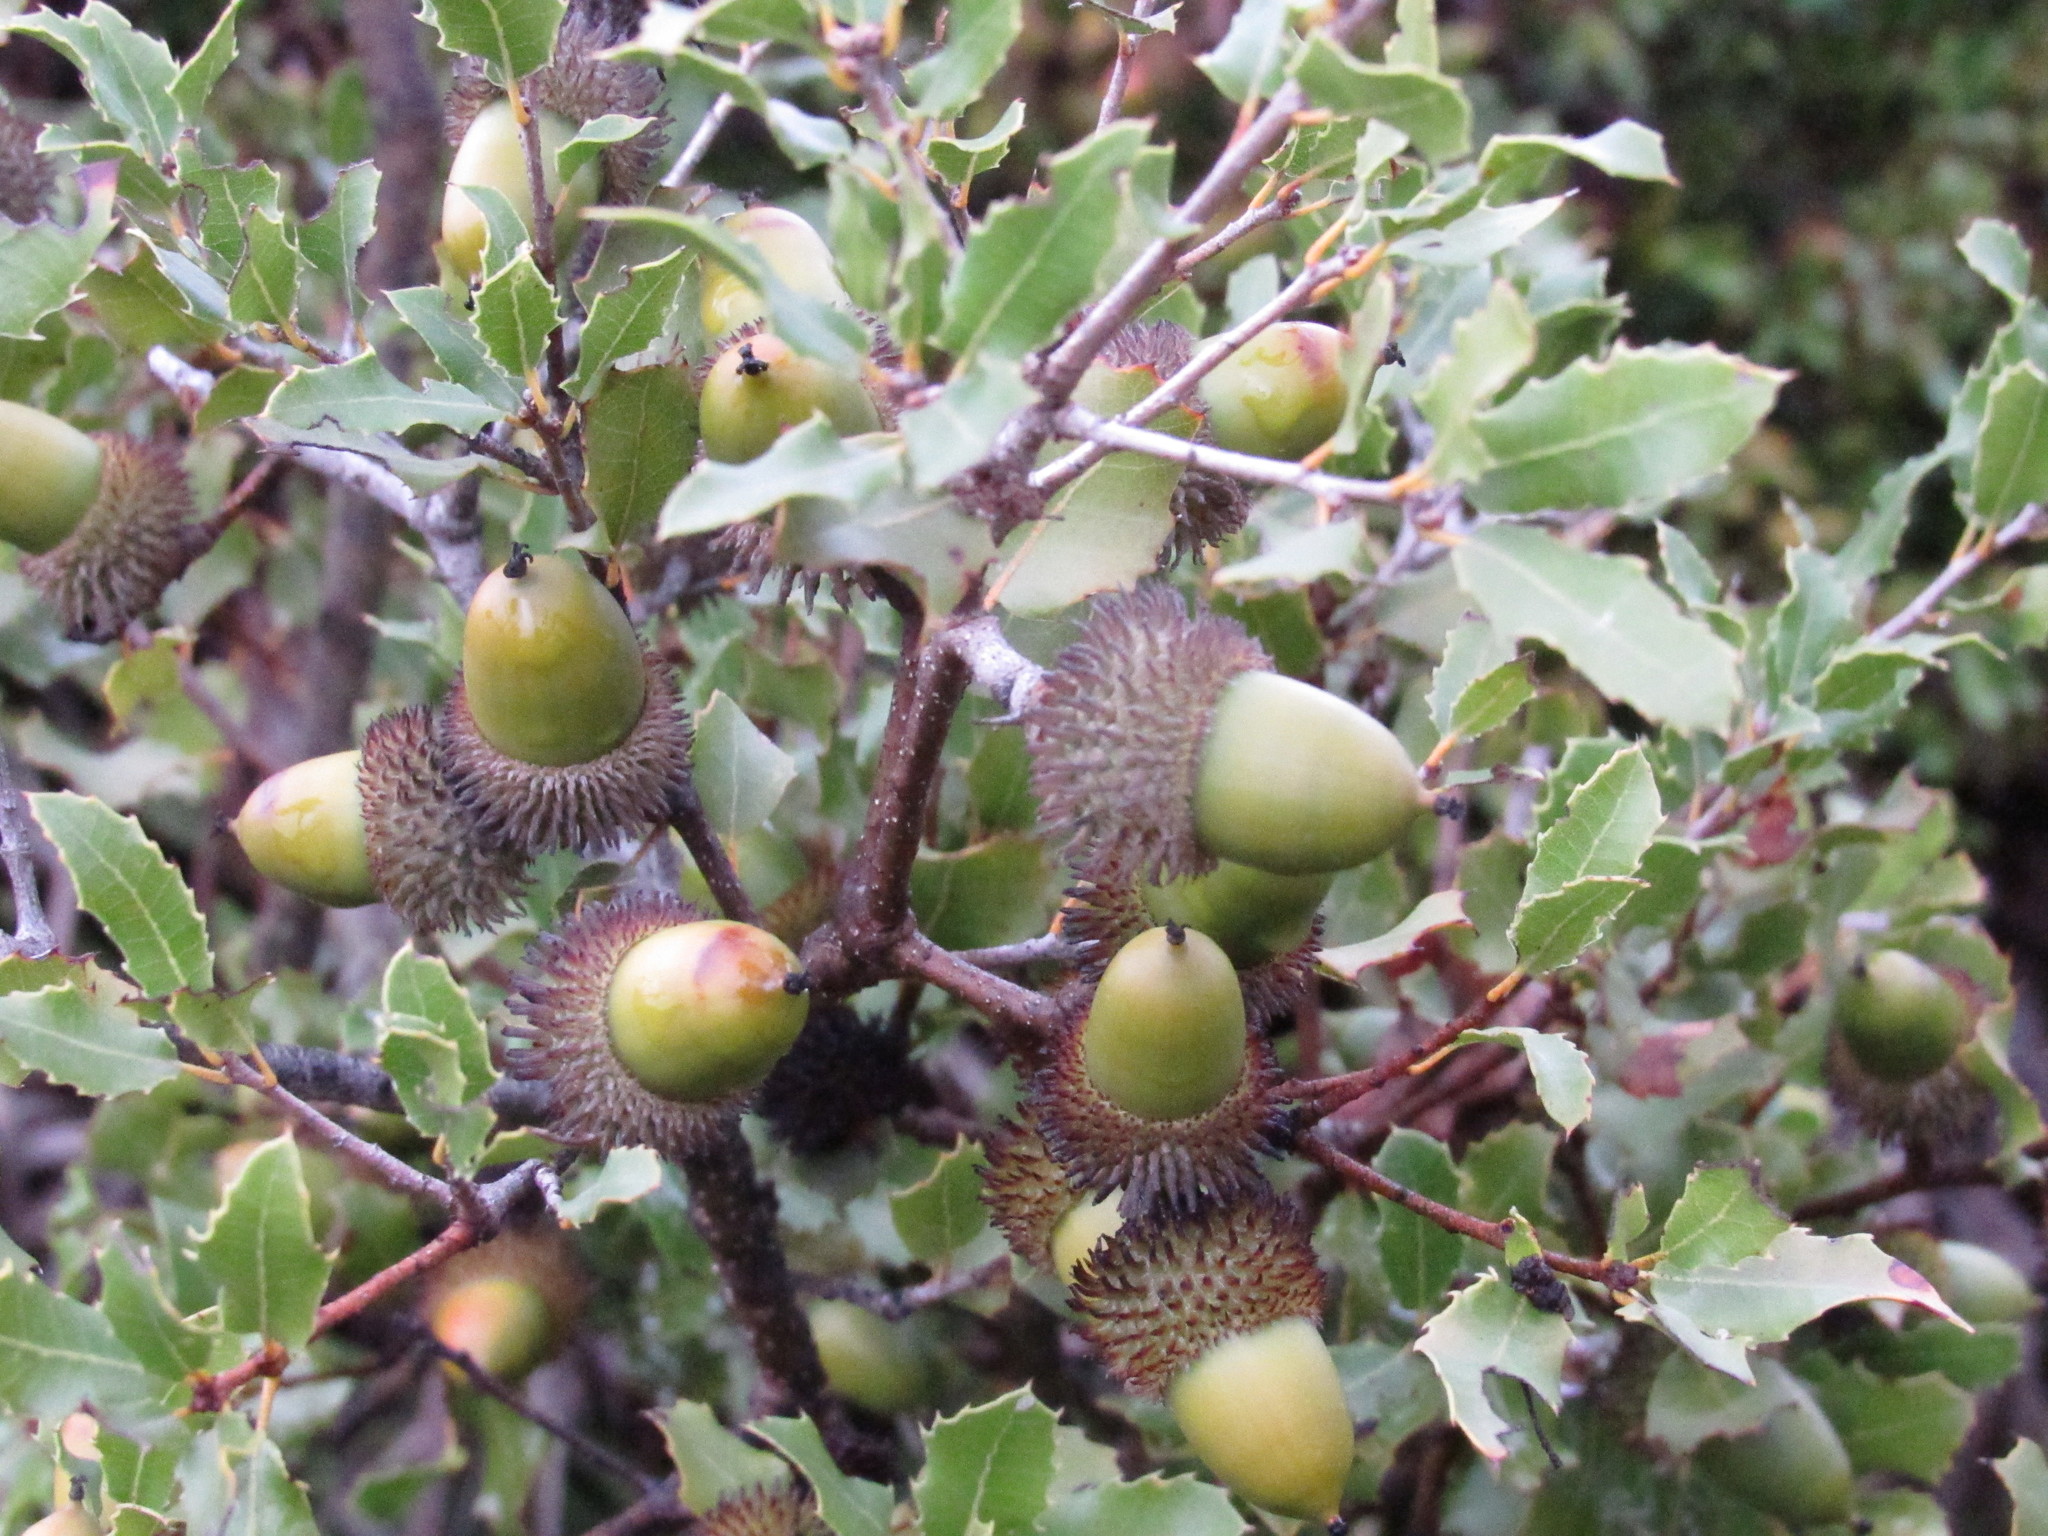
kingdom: Plantae
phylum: Tracheophyta
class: Magnoliopsida
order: Fagales
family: Fagaceae
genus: Quercus
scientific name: Quercus coccifera
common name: Kermes oak
